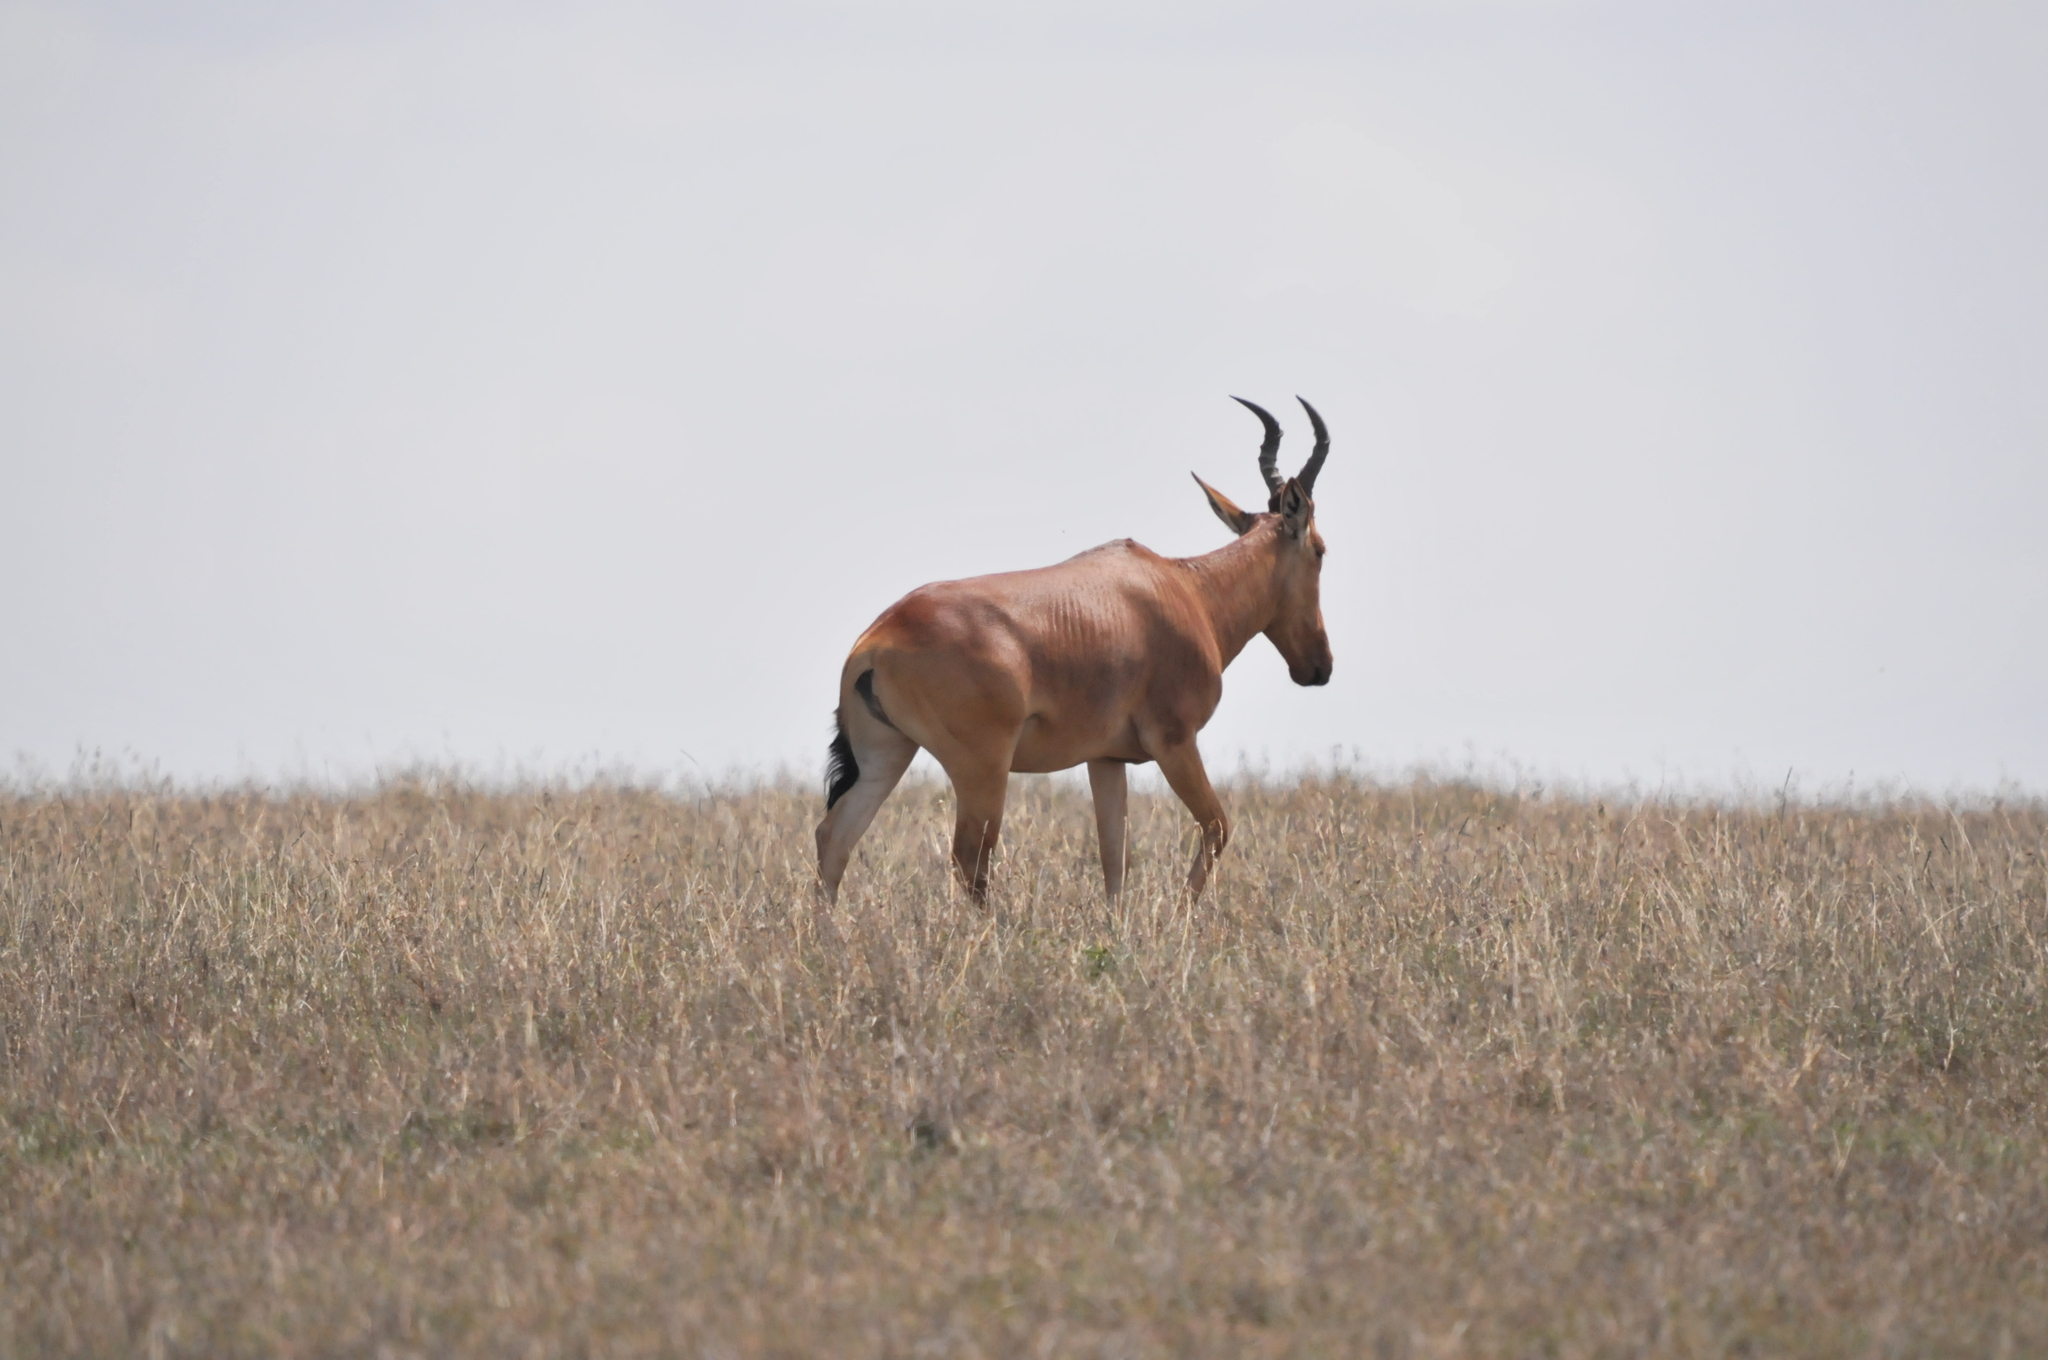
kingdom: Animalia
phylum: Chordata
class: Mammalia
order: Artiodactyla
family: Bovidae
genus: Alcelaphus
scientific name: Alcelaphus buselaphus
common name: Hartebeest
